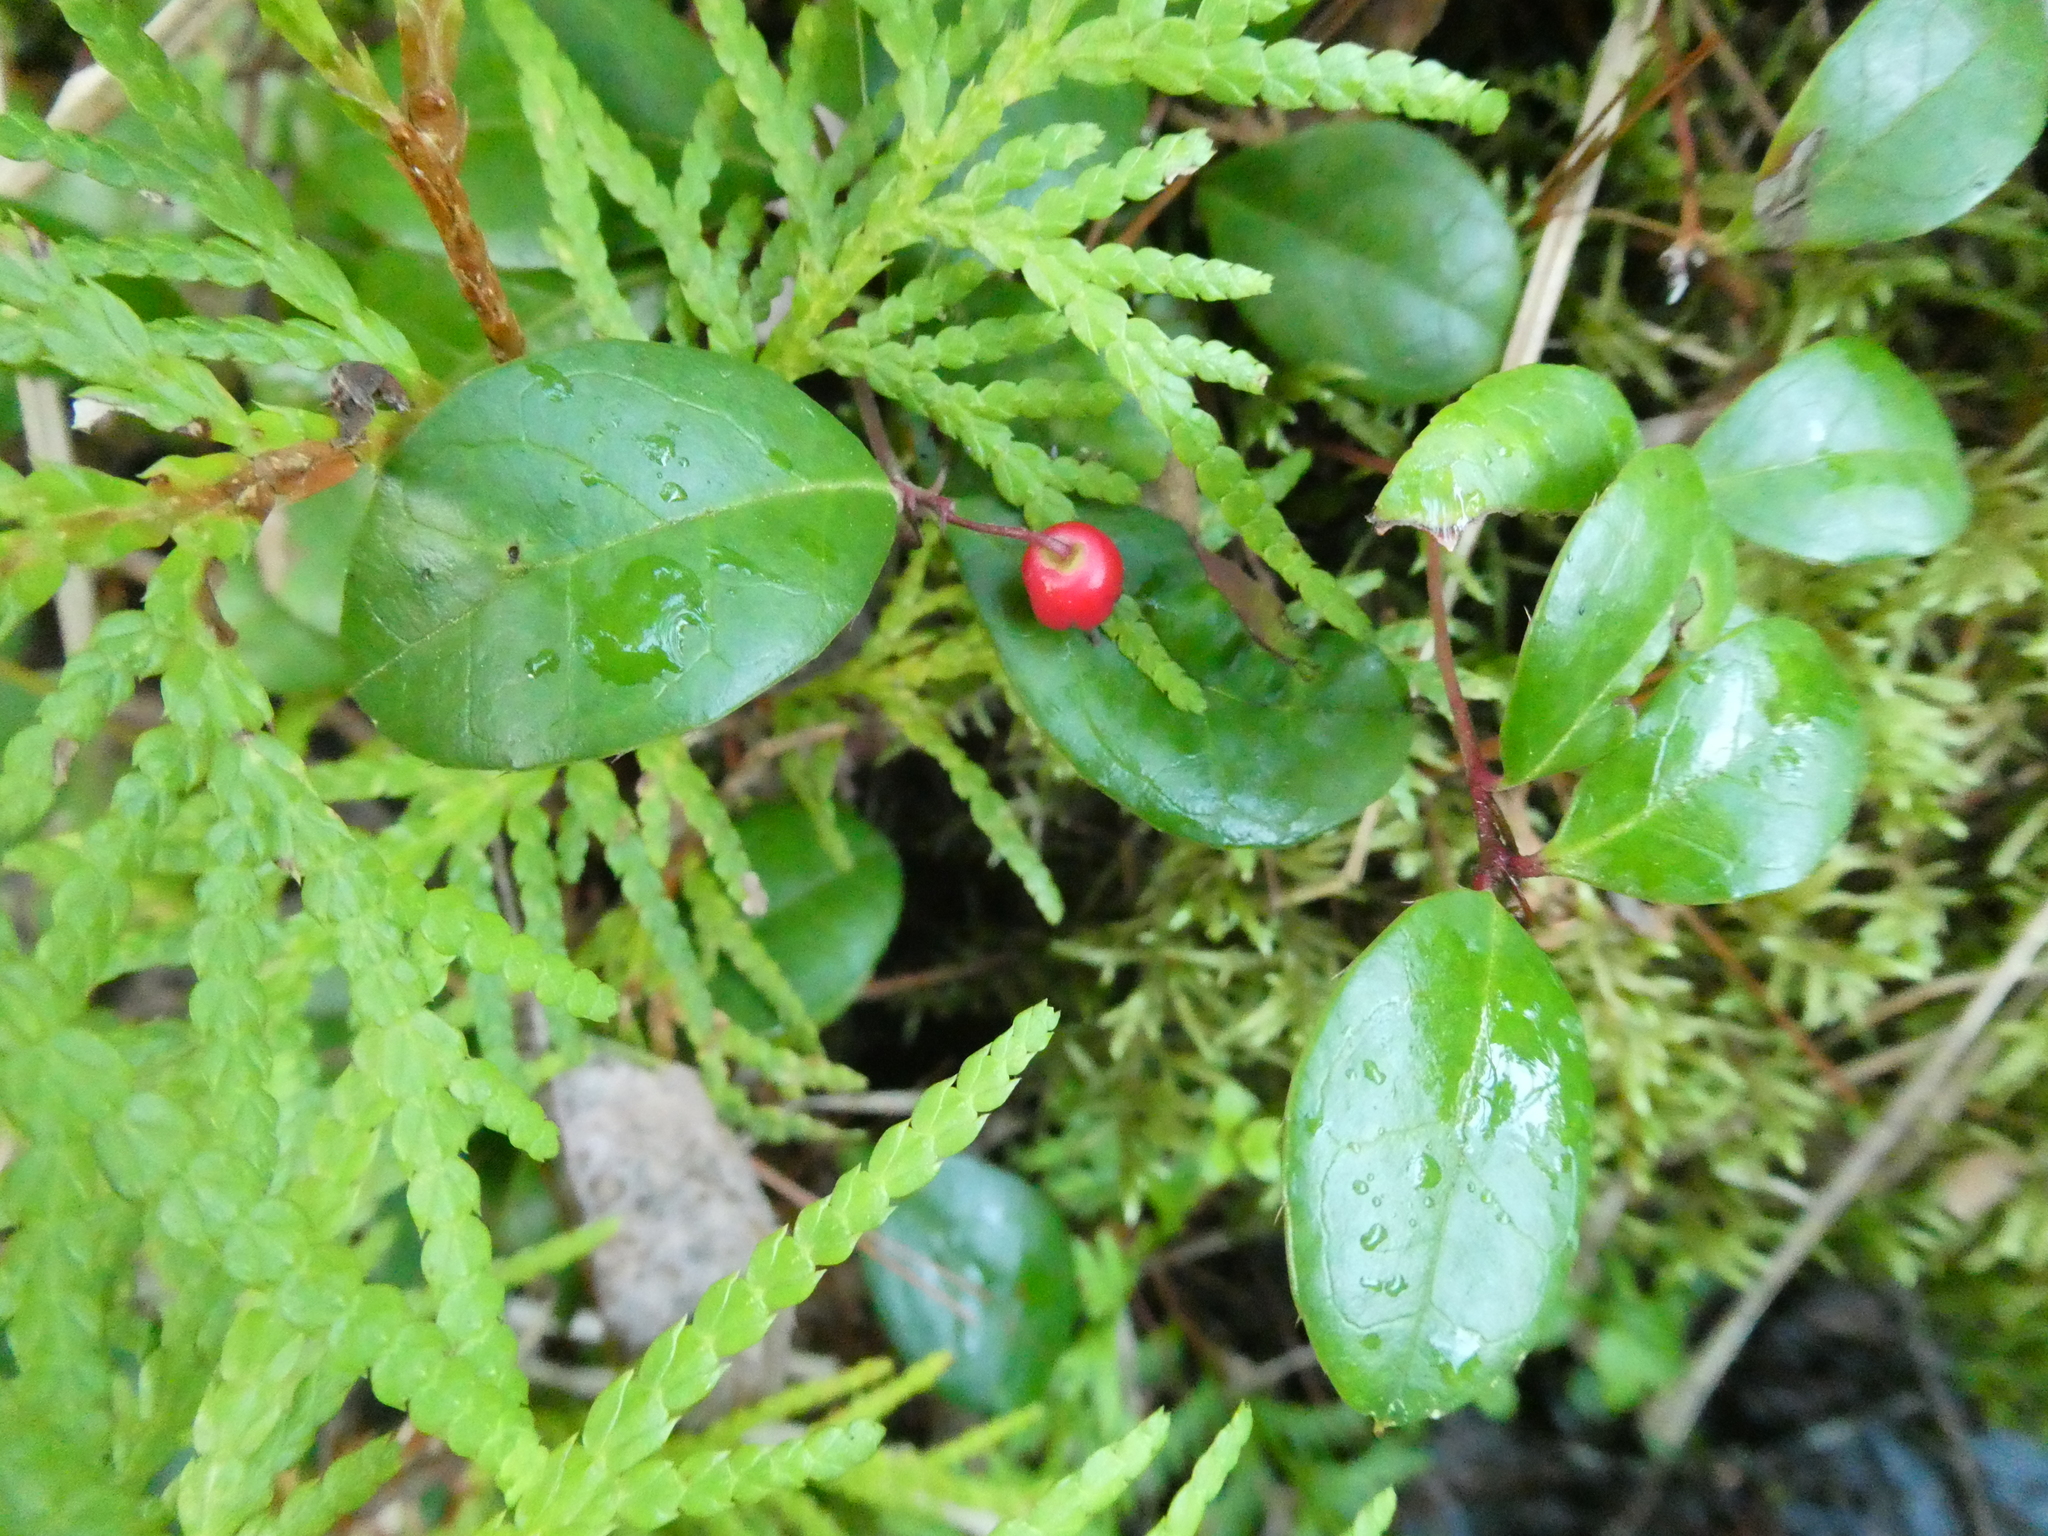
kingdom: Plantae
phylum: Tracheophyta
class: Magnoliopsida
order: Ericales
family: Ericaceae
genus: Gaultheria
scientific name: Gaultheria procumbens
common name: Checkerberry
